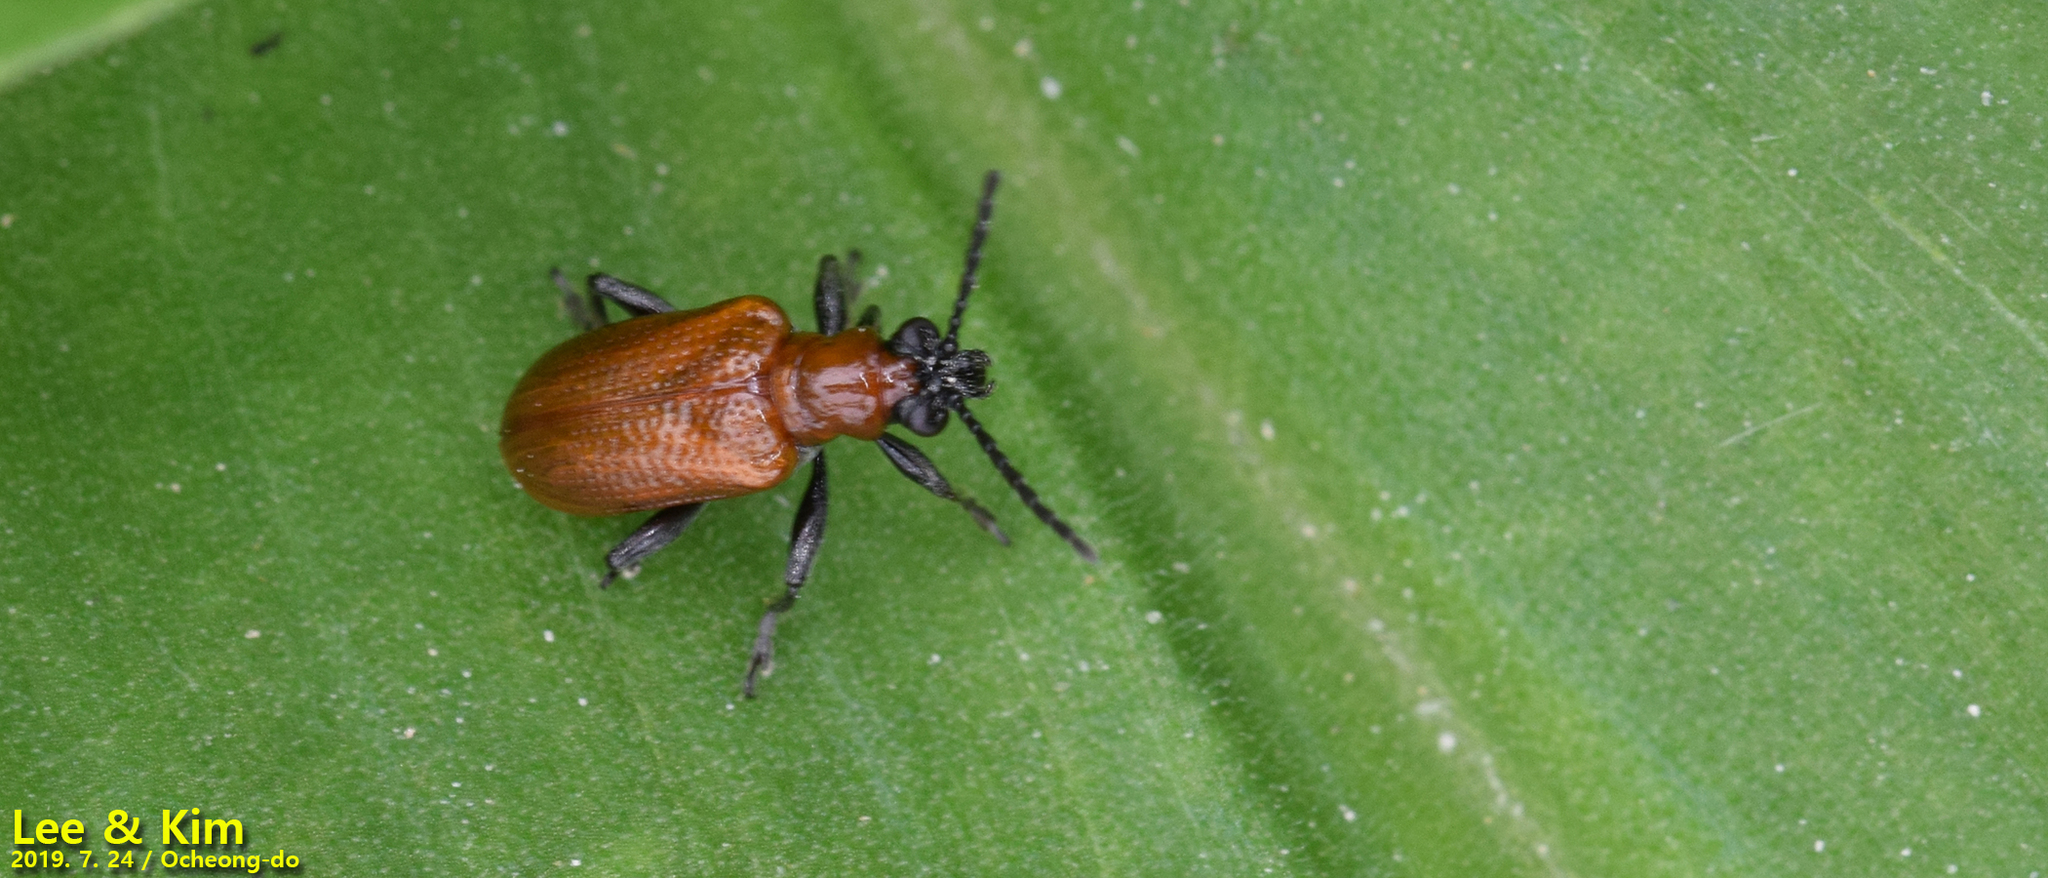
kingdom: Animalia
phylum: Arthropoda
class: Insecta
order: Coleoptera
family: Chrysomelidae
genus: Lema
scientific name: Lema diversa
